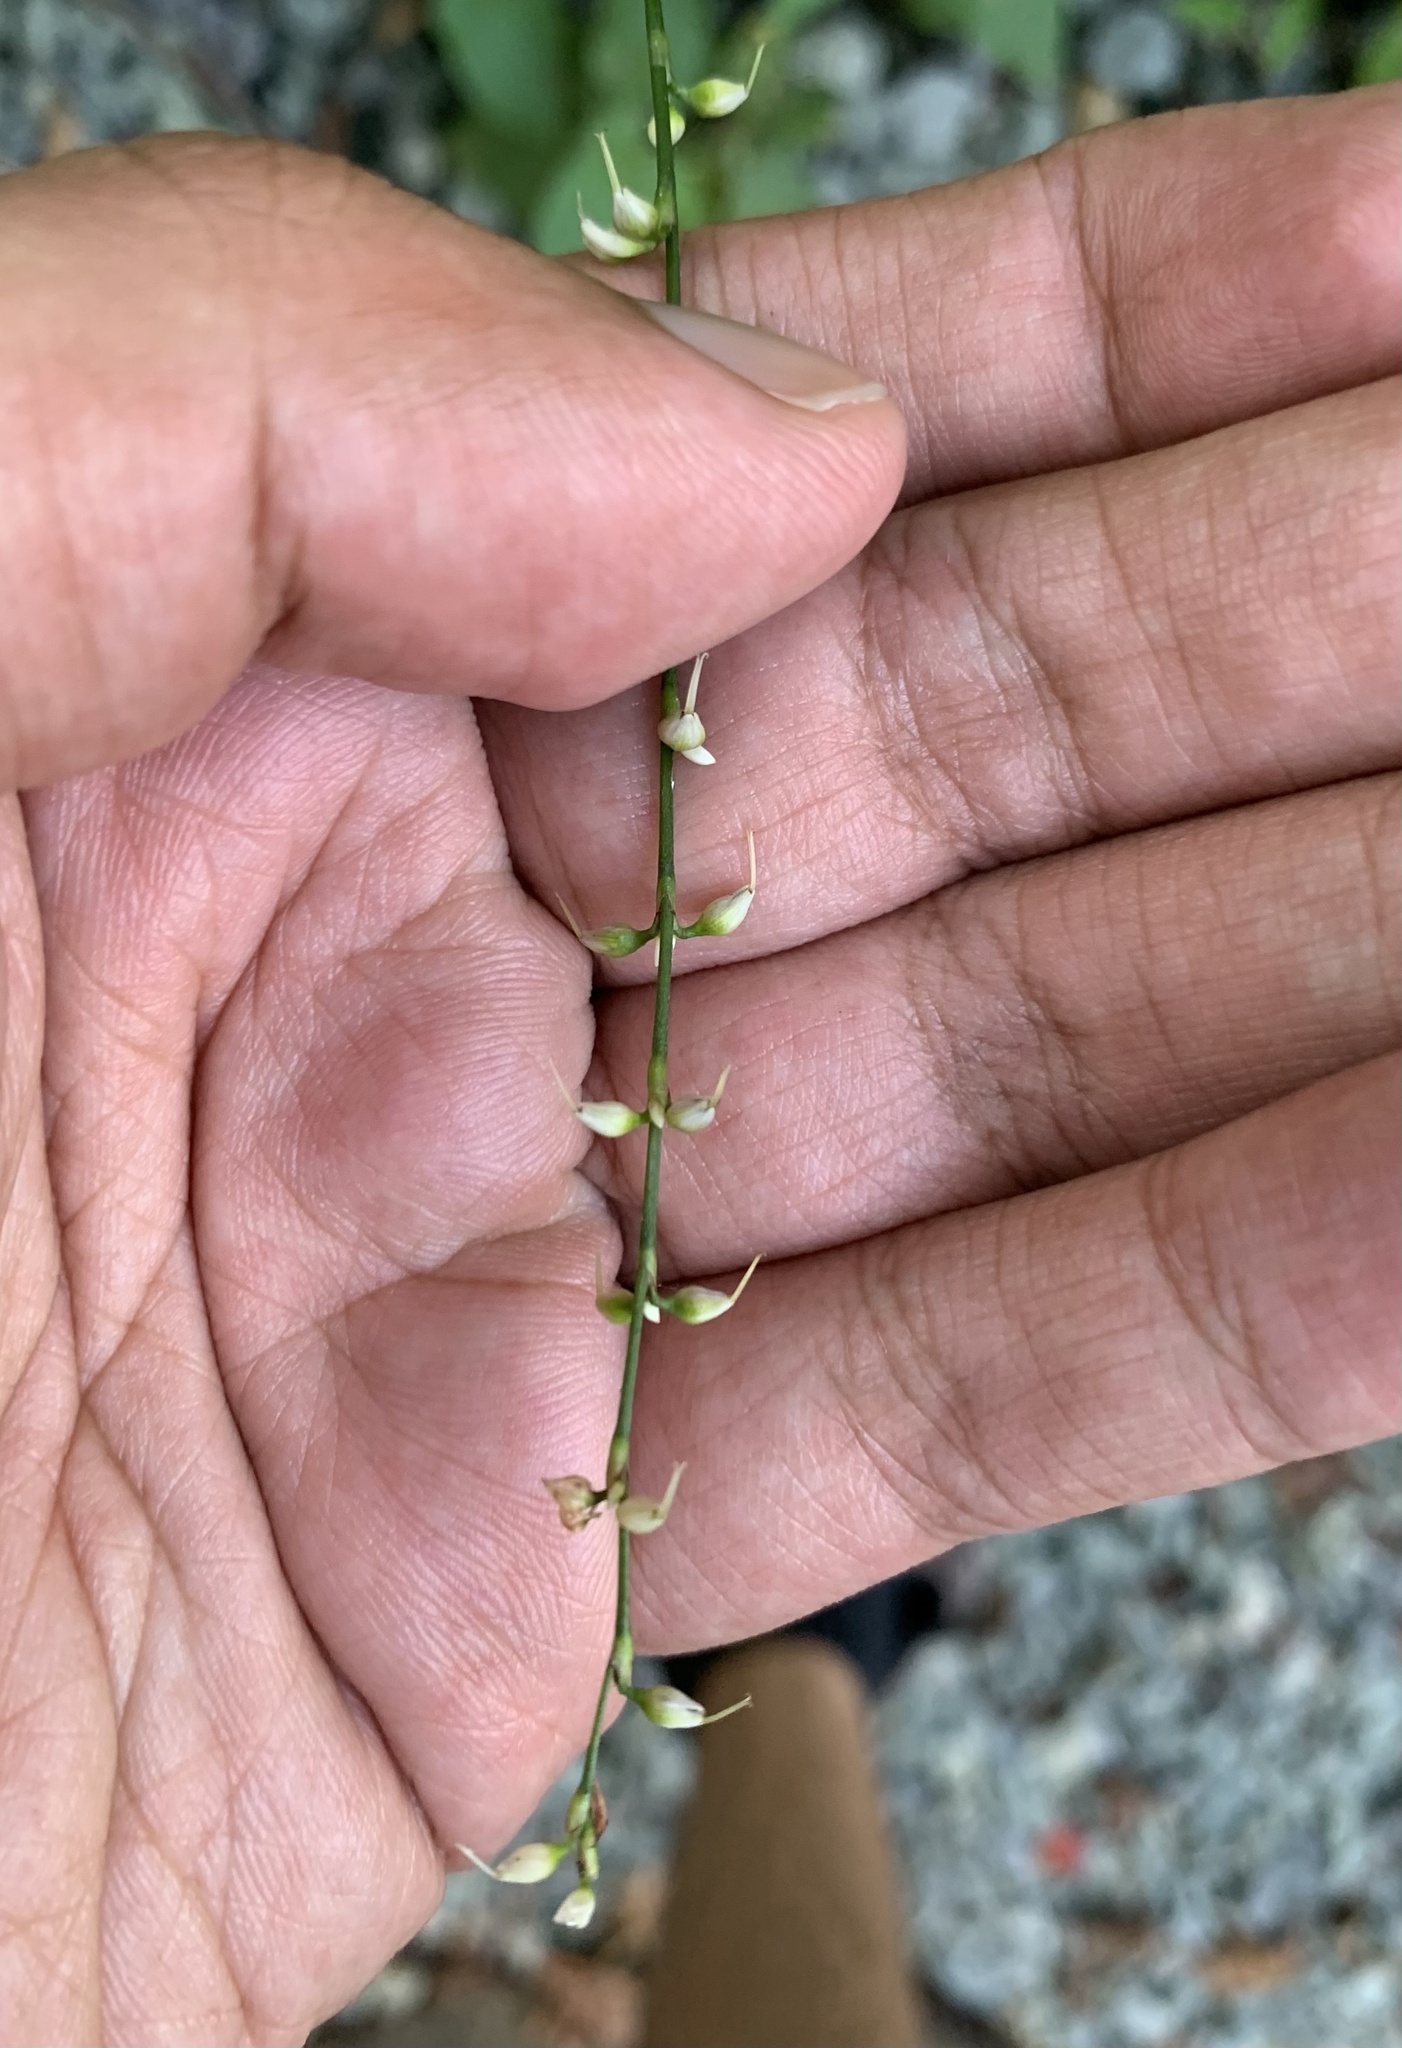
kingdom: Plantae
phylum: Tracheophyta
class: Magnoliopsida
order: Caryophyllales
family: Polygonaceae
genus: Persicaria
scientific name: Persicaria virginiana
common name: Jumpseed
